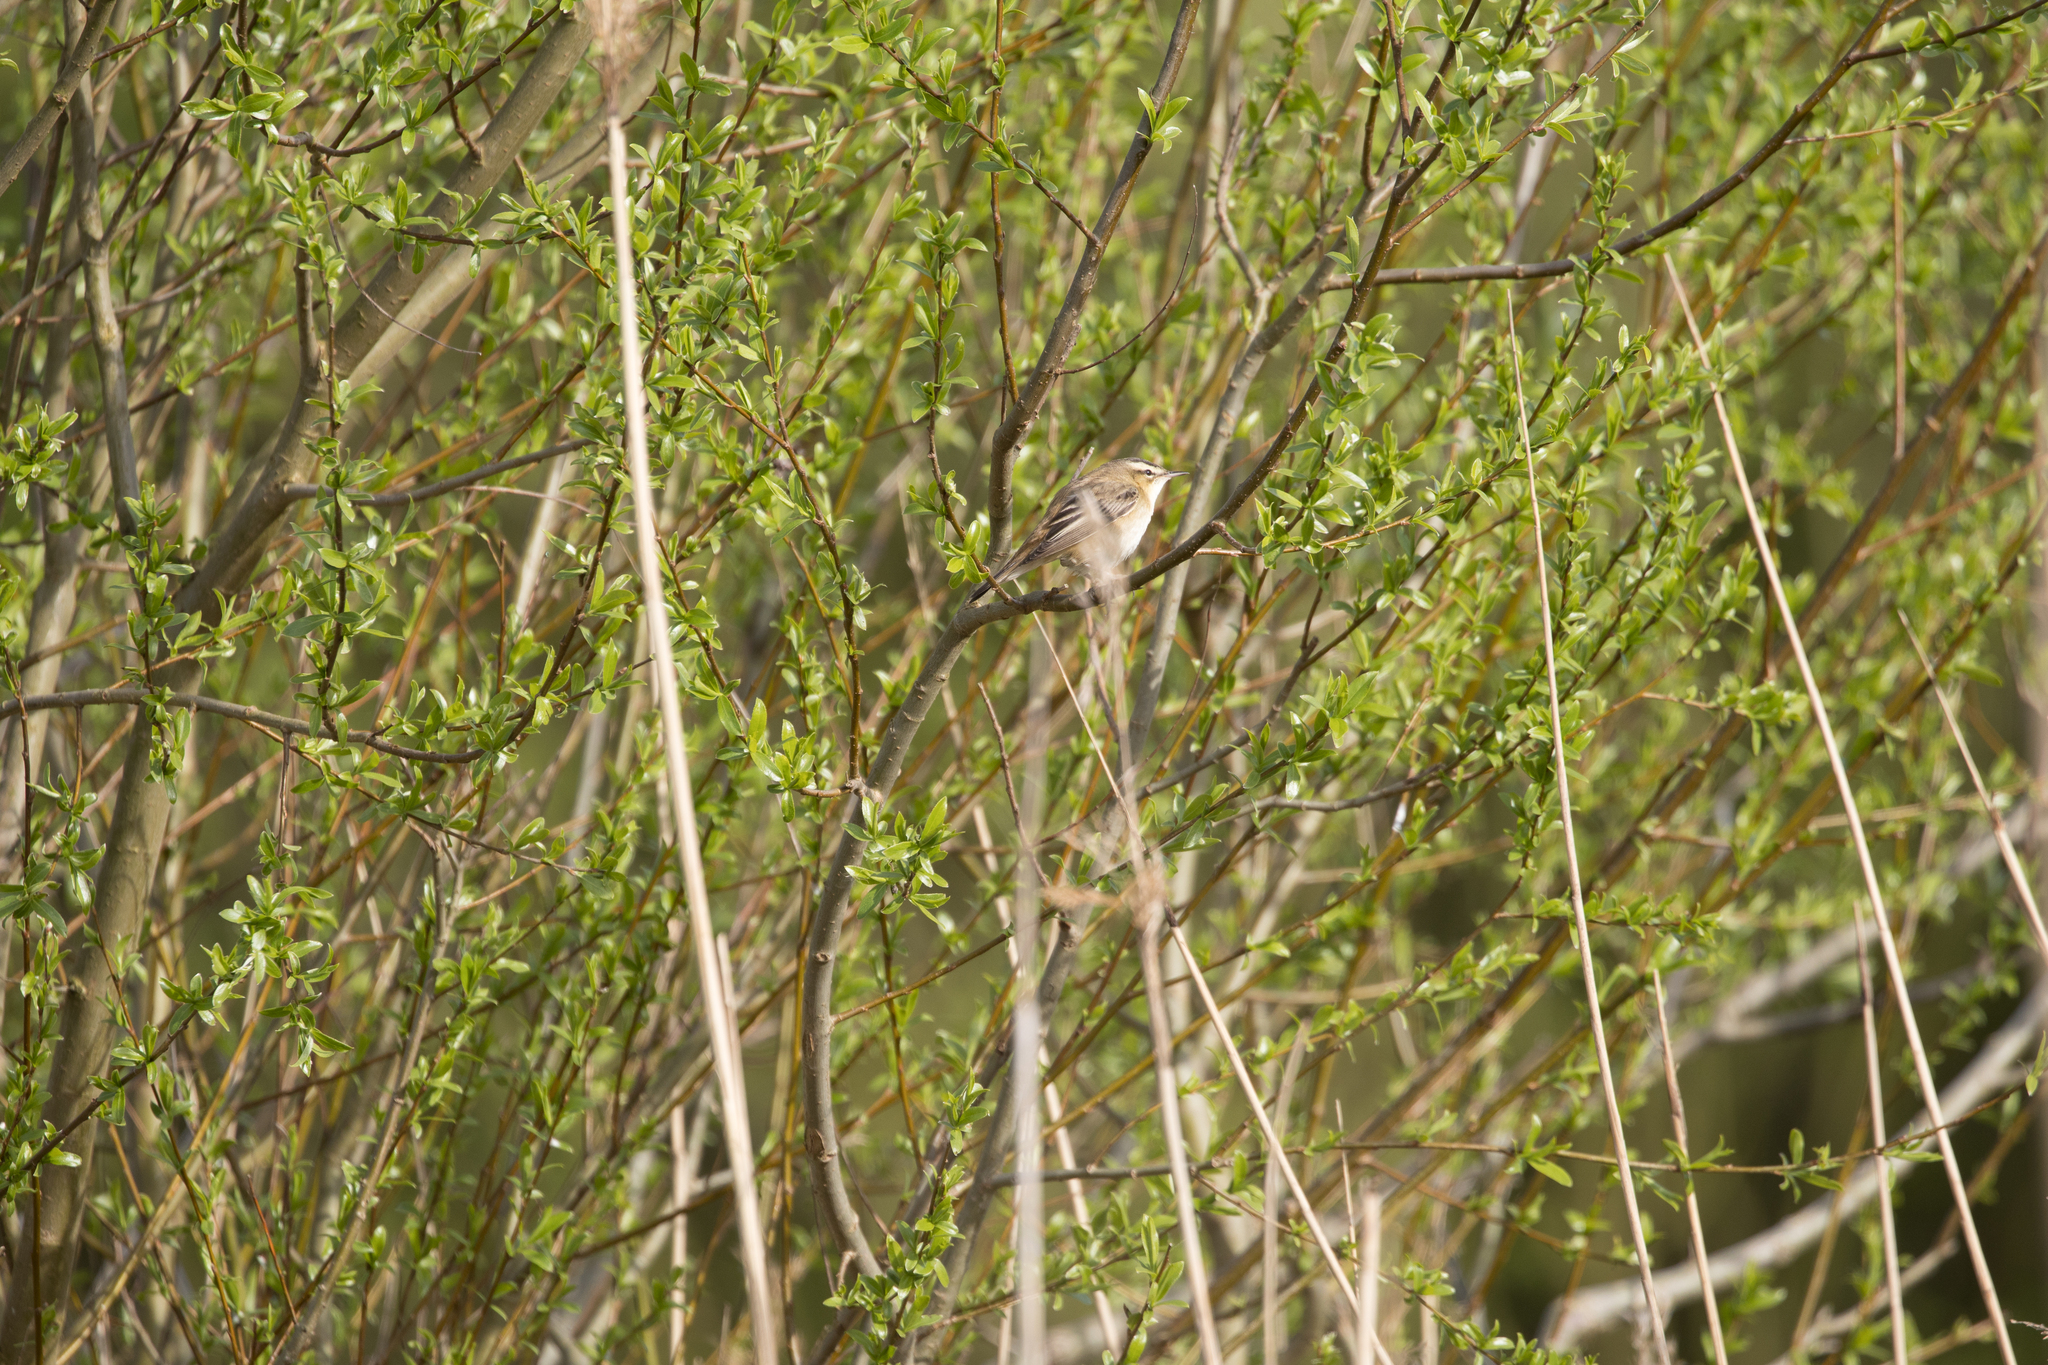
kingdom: Animalia
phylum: Chordata
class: Aves
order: Passeriformes
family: Acrocephalidae
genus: Acrocephalus
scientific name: Acrocephalus schoenobaenus
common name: Sedge warbler
